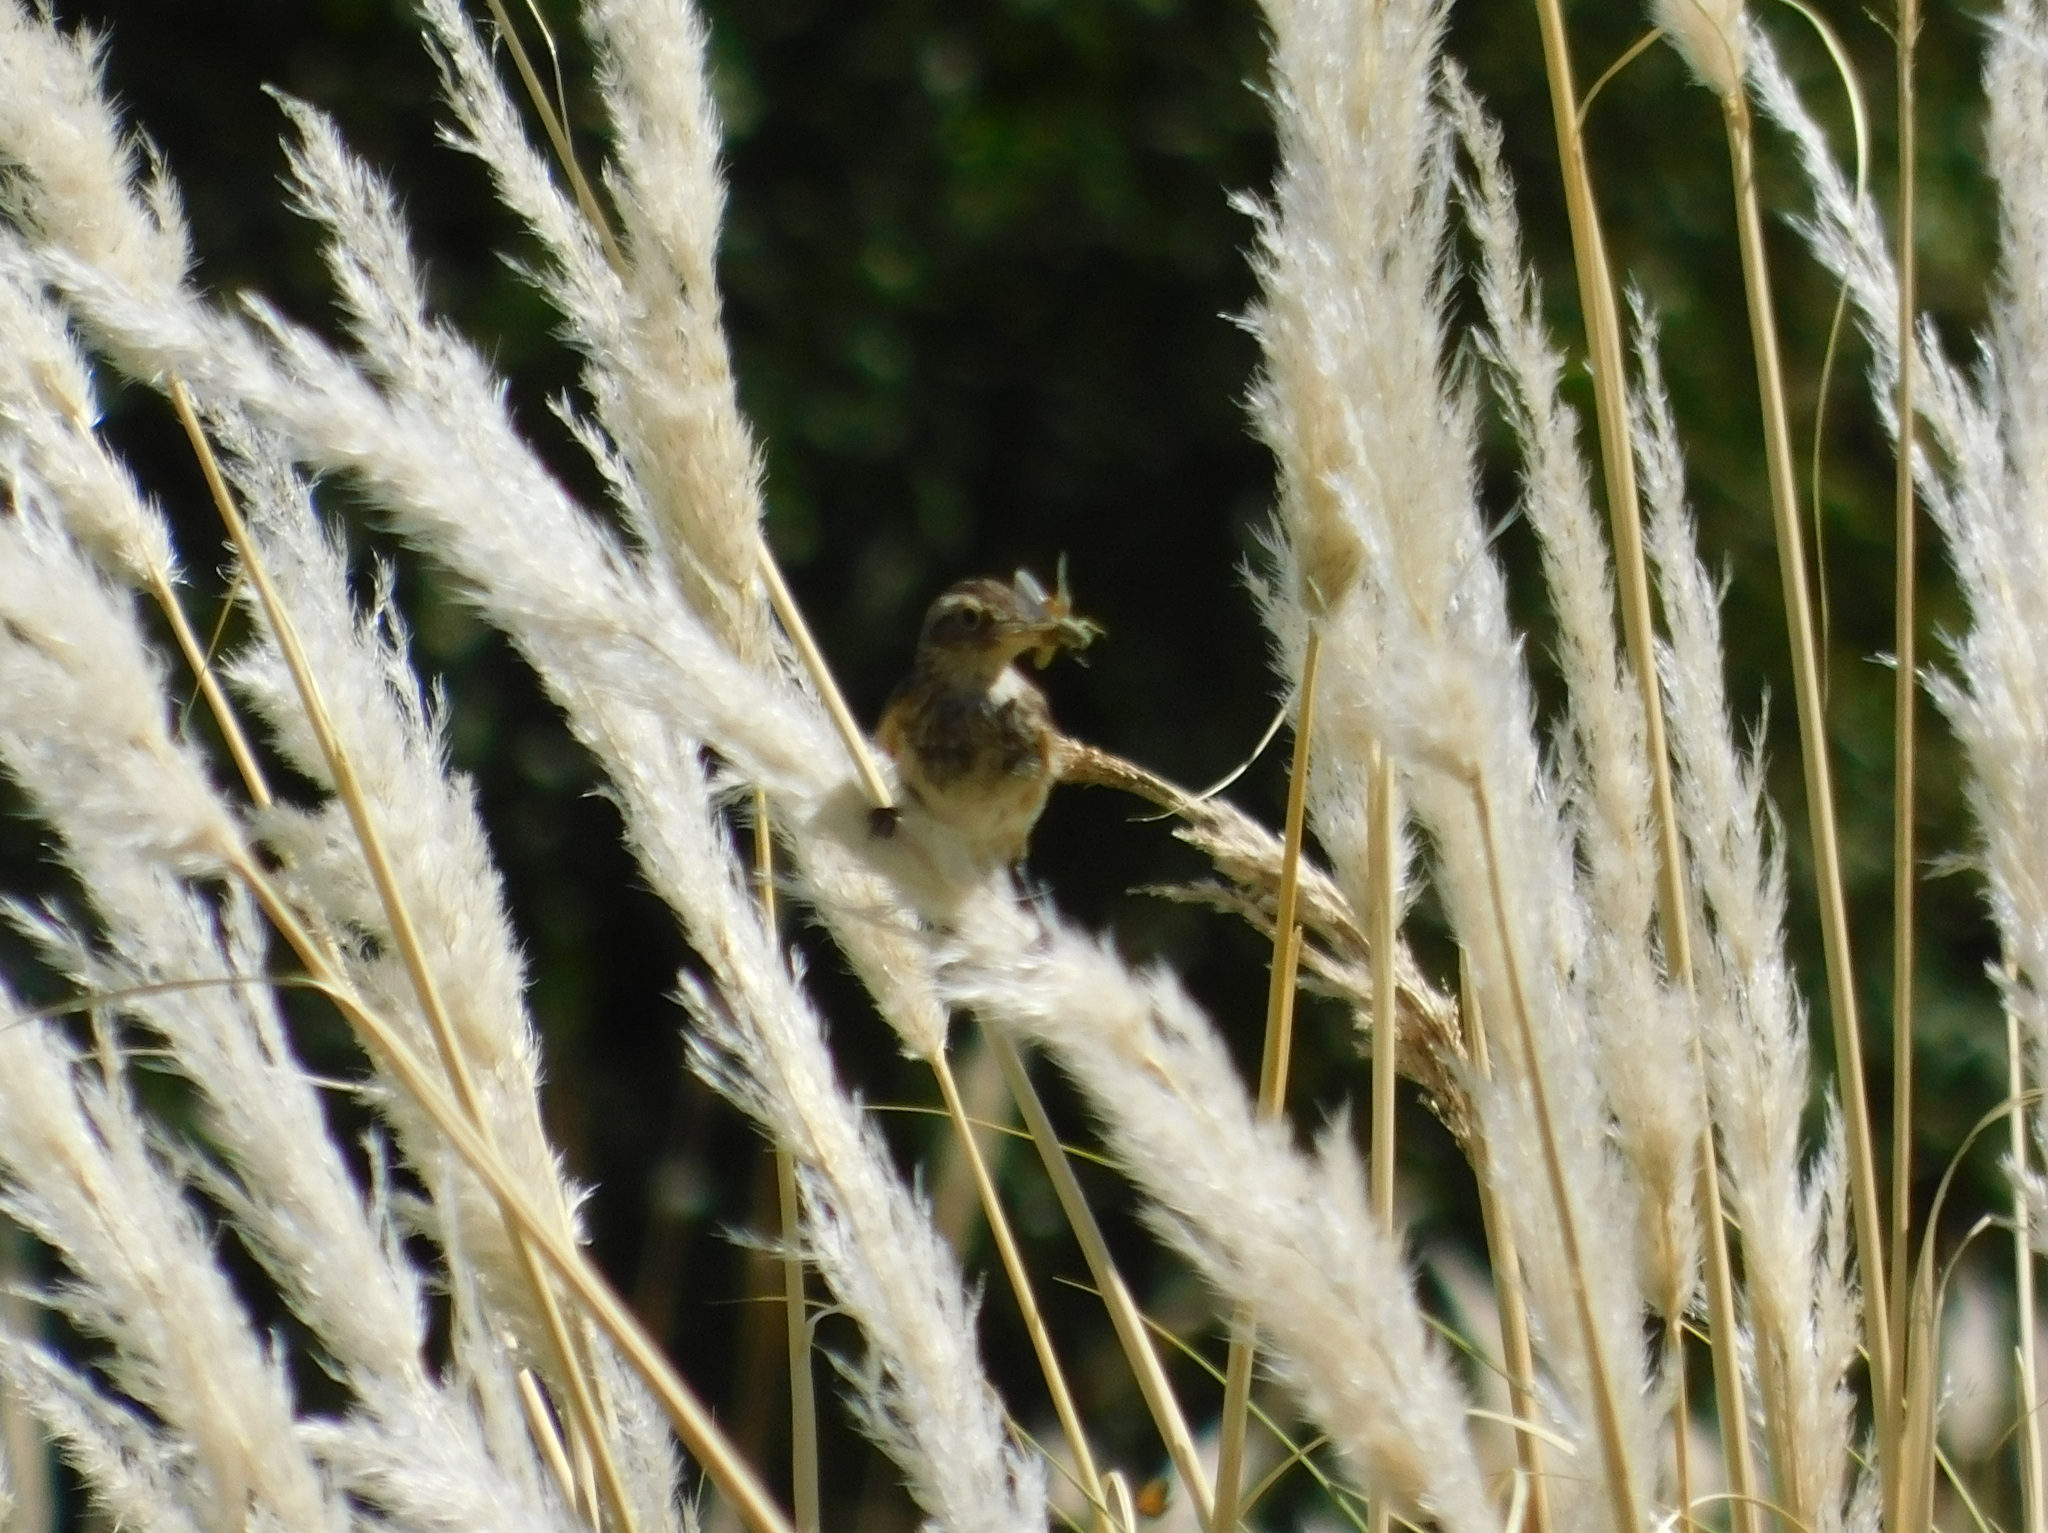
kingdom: Animalia
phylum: Chordata
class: Aves
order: Passeriformes
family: Tyrannidae
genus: Hymenops
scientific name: Hymenops perspicillatus
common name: Spectacled tyrant
